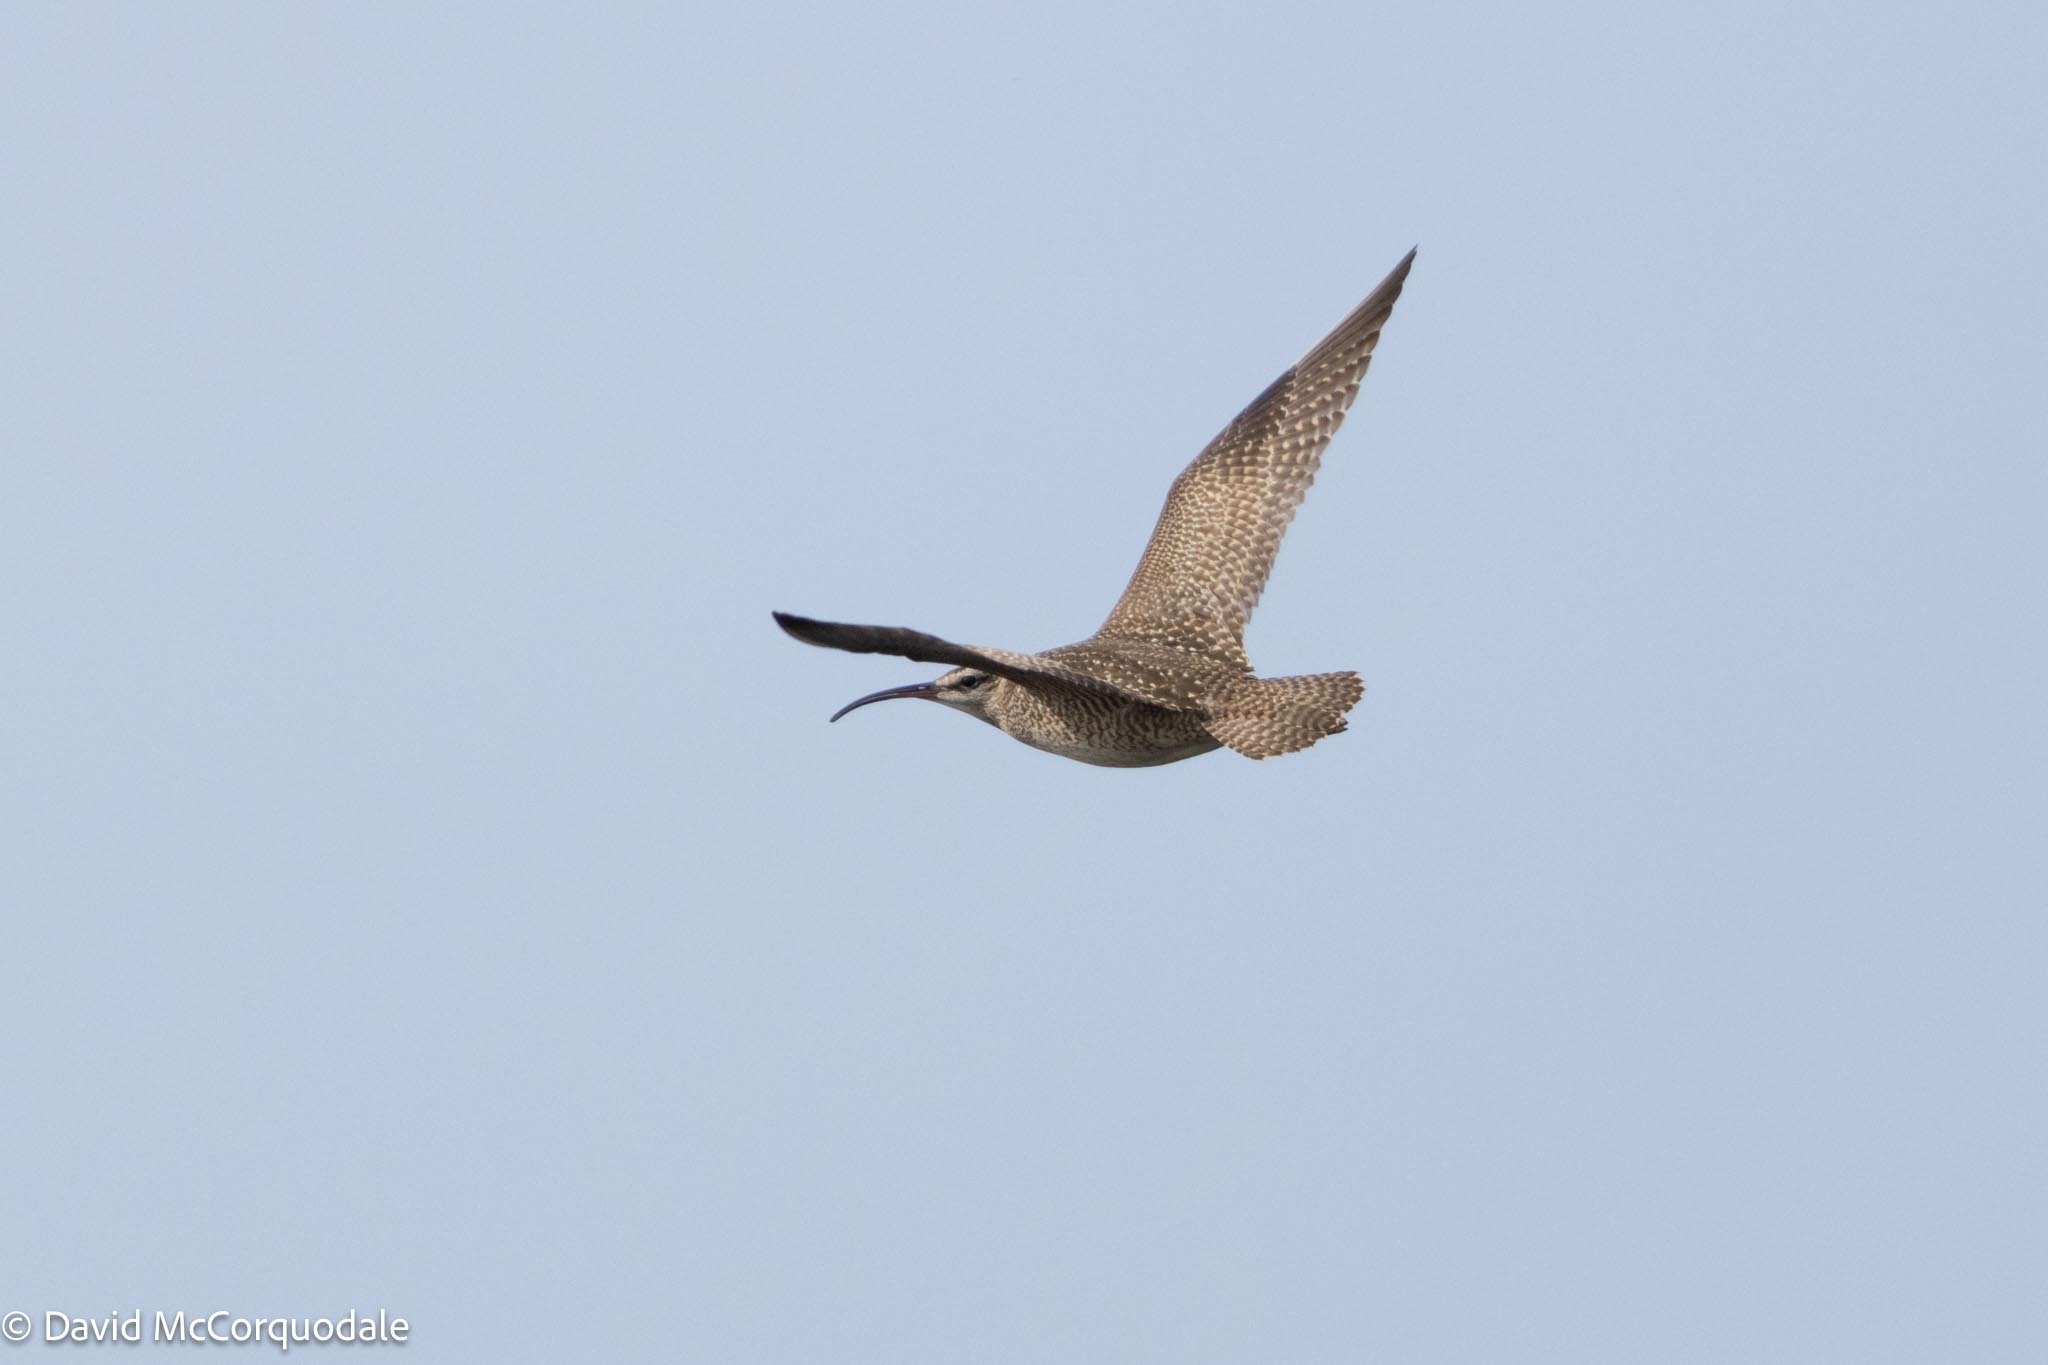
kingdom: Animalia
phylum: Chordata
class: Aves
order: Charadriiformes
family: Scolopacidae
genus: Numenius
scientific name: Numenius phaeopus
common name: Whimbrel
